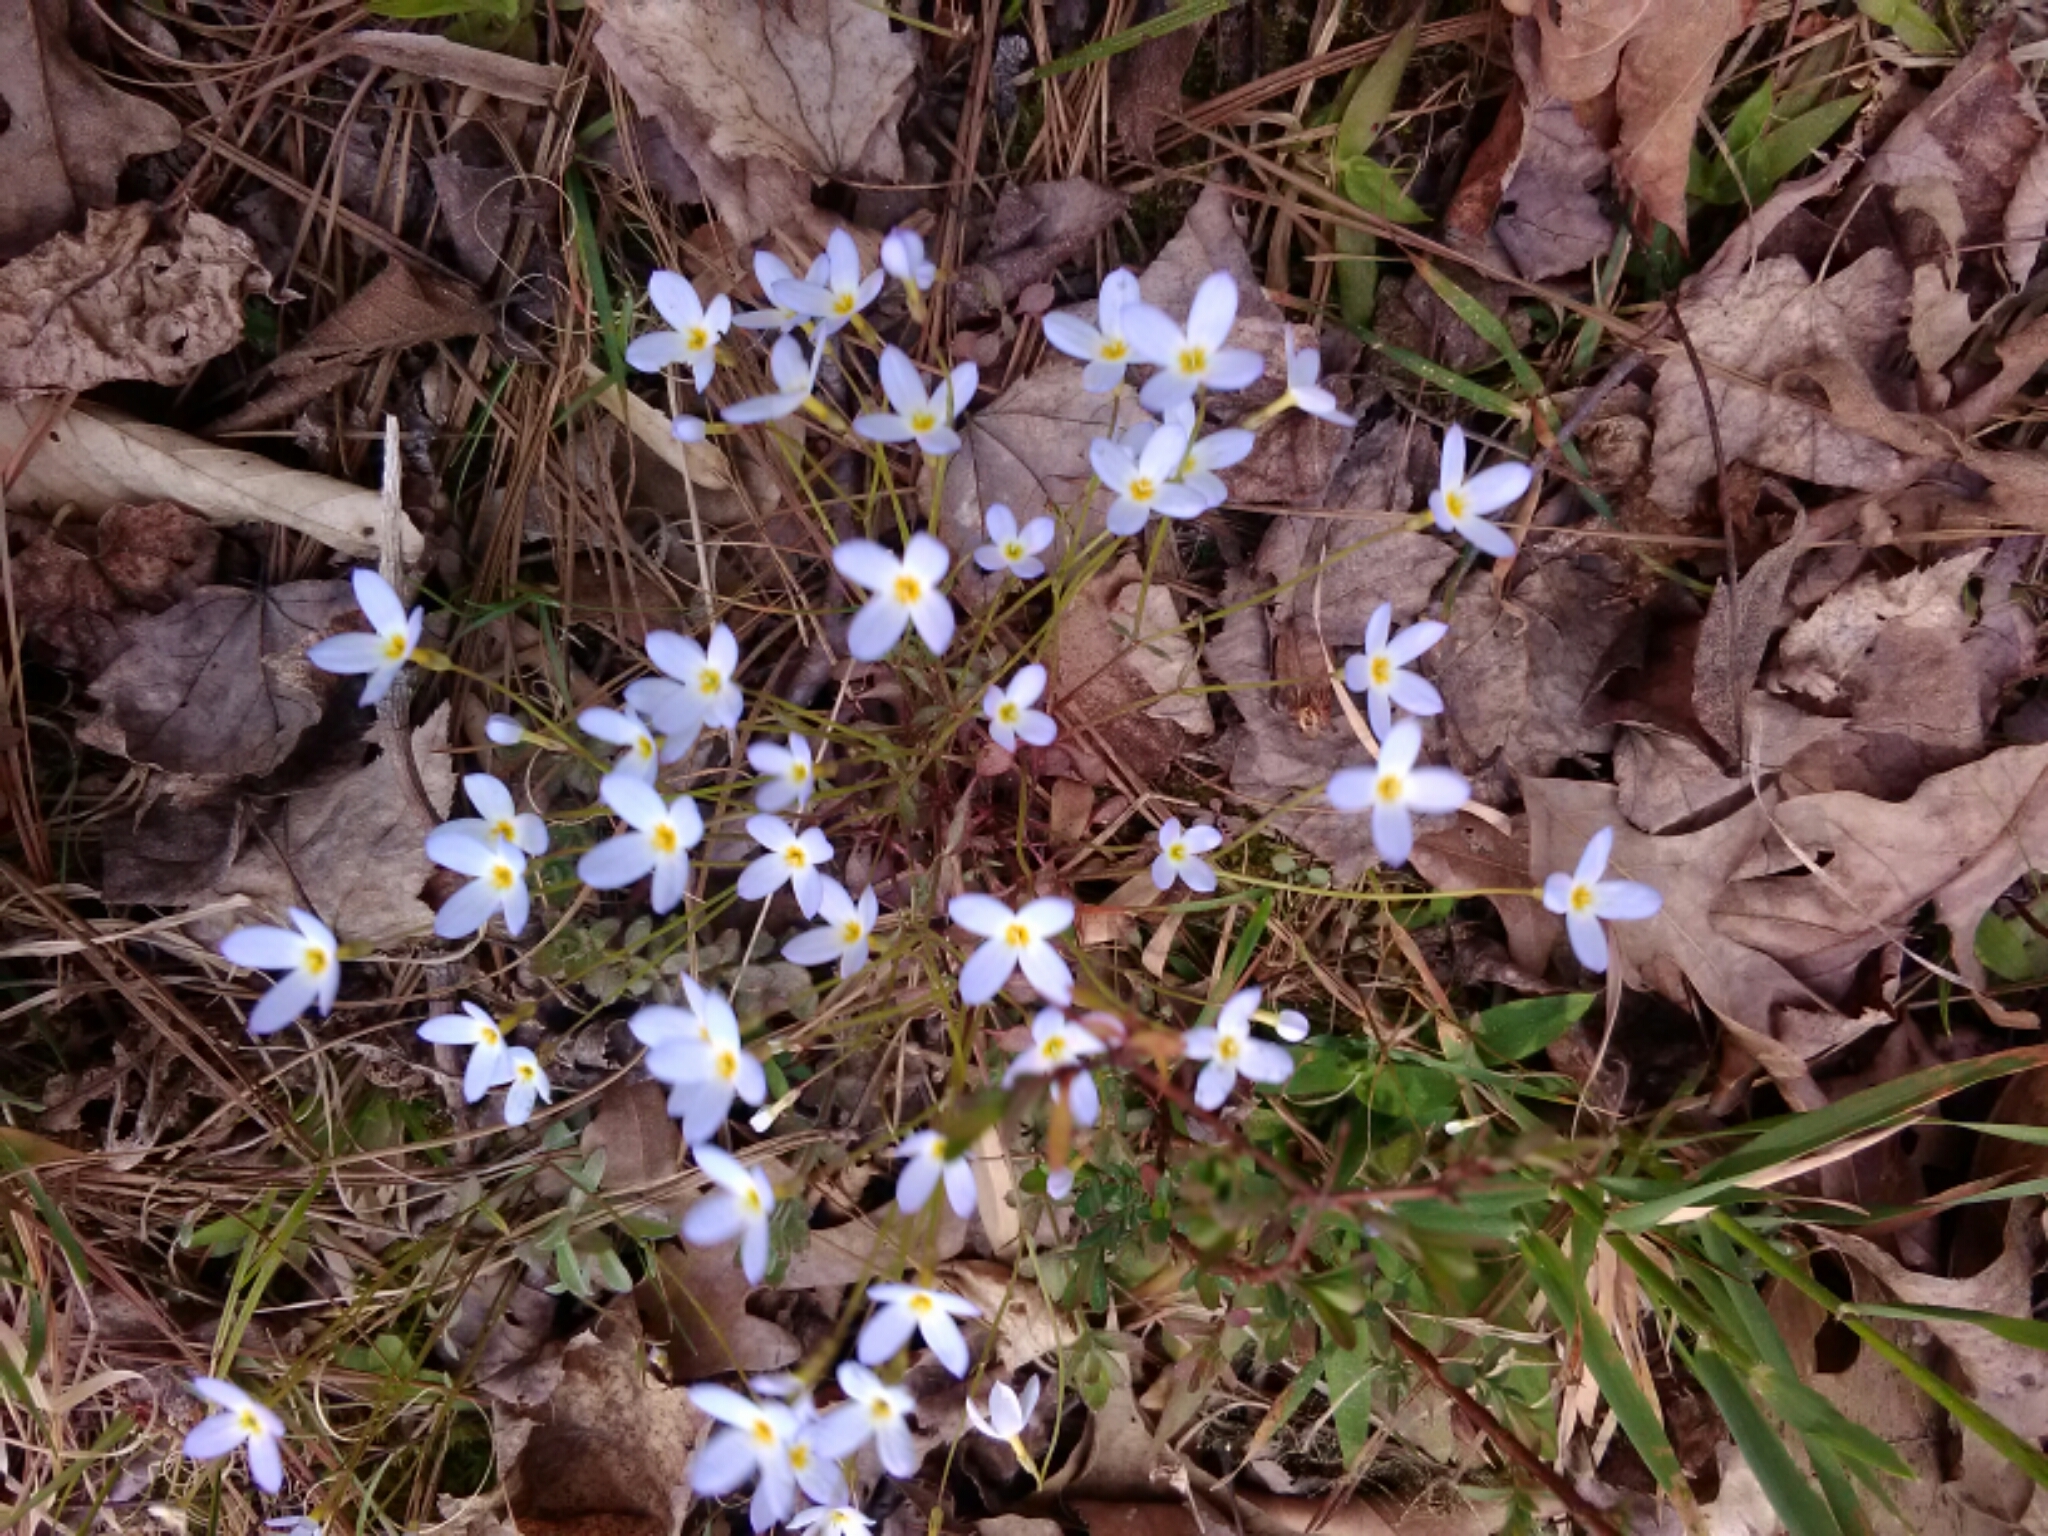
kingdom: Plantae
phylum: Tracheophyta
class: Magnoliopsida
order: Gentianales
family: Rubiaceae
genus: Houstonia
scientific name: Houstonia caerulea
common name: Bluets
